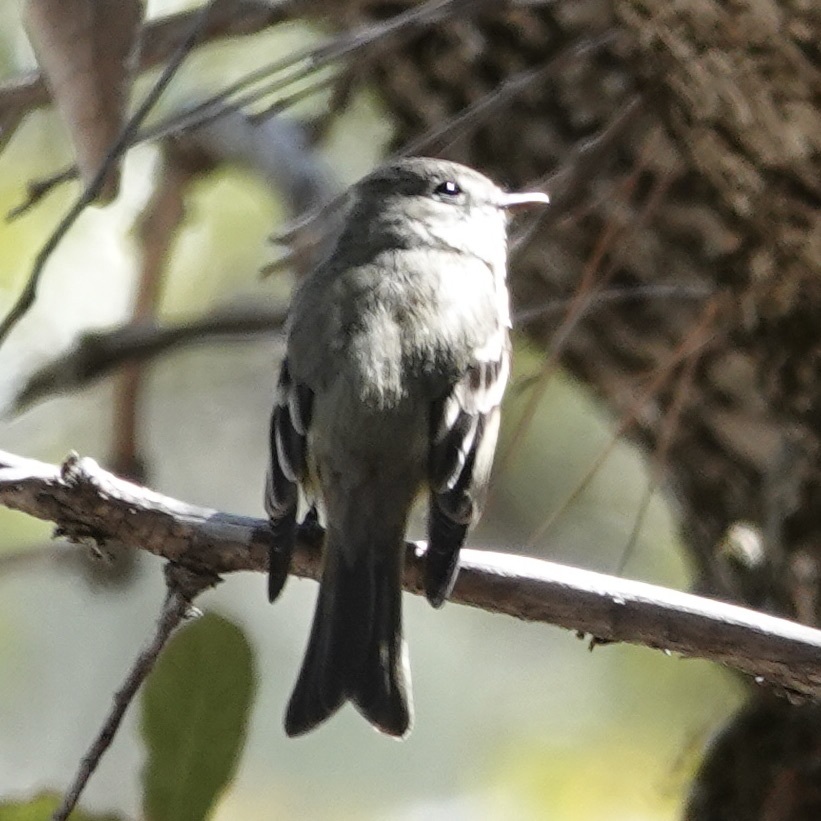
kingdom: Animalia
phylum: Chordata
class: Aves
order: Passeriformes
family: Tyrannidae
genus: Empidonax
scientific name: Empidonax hammondii
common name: Hammond's flycatcher
